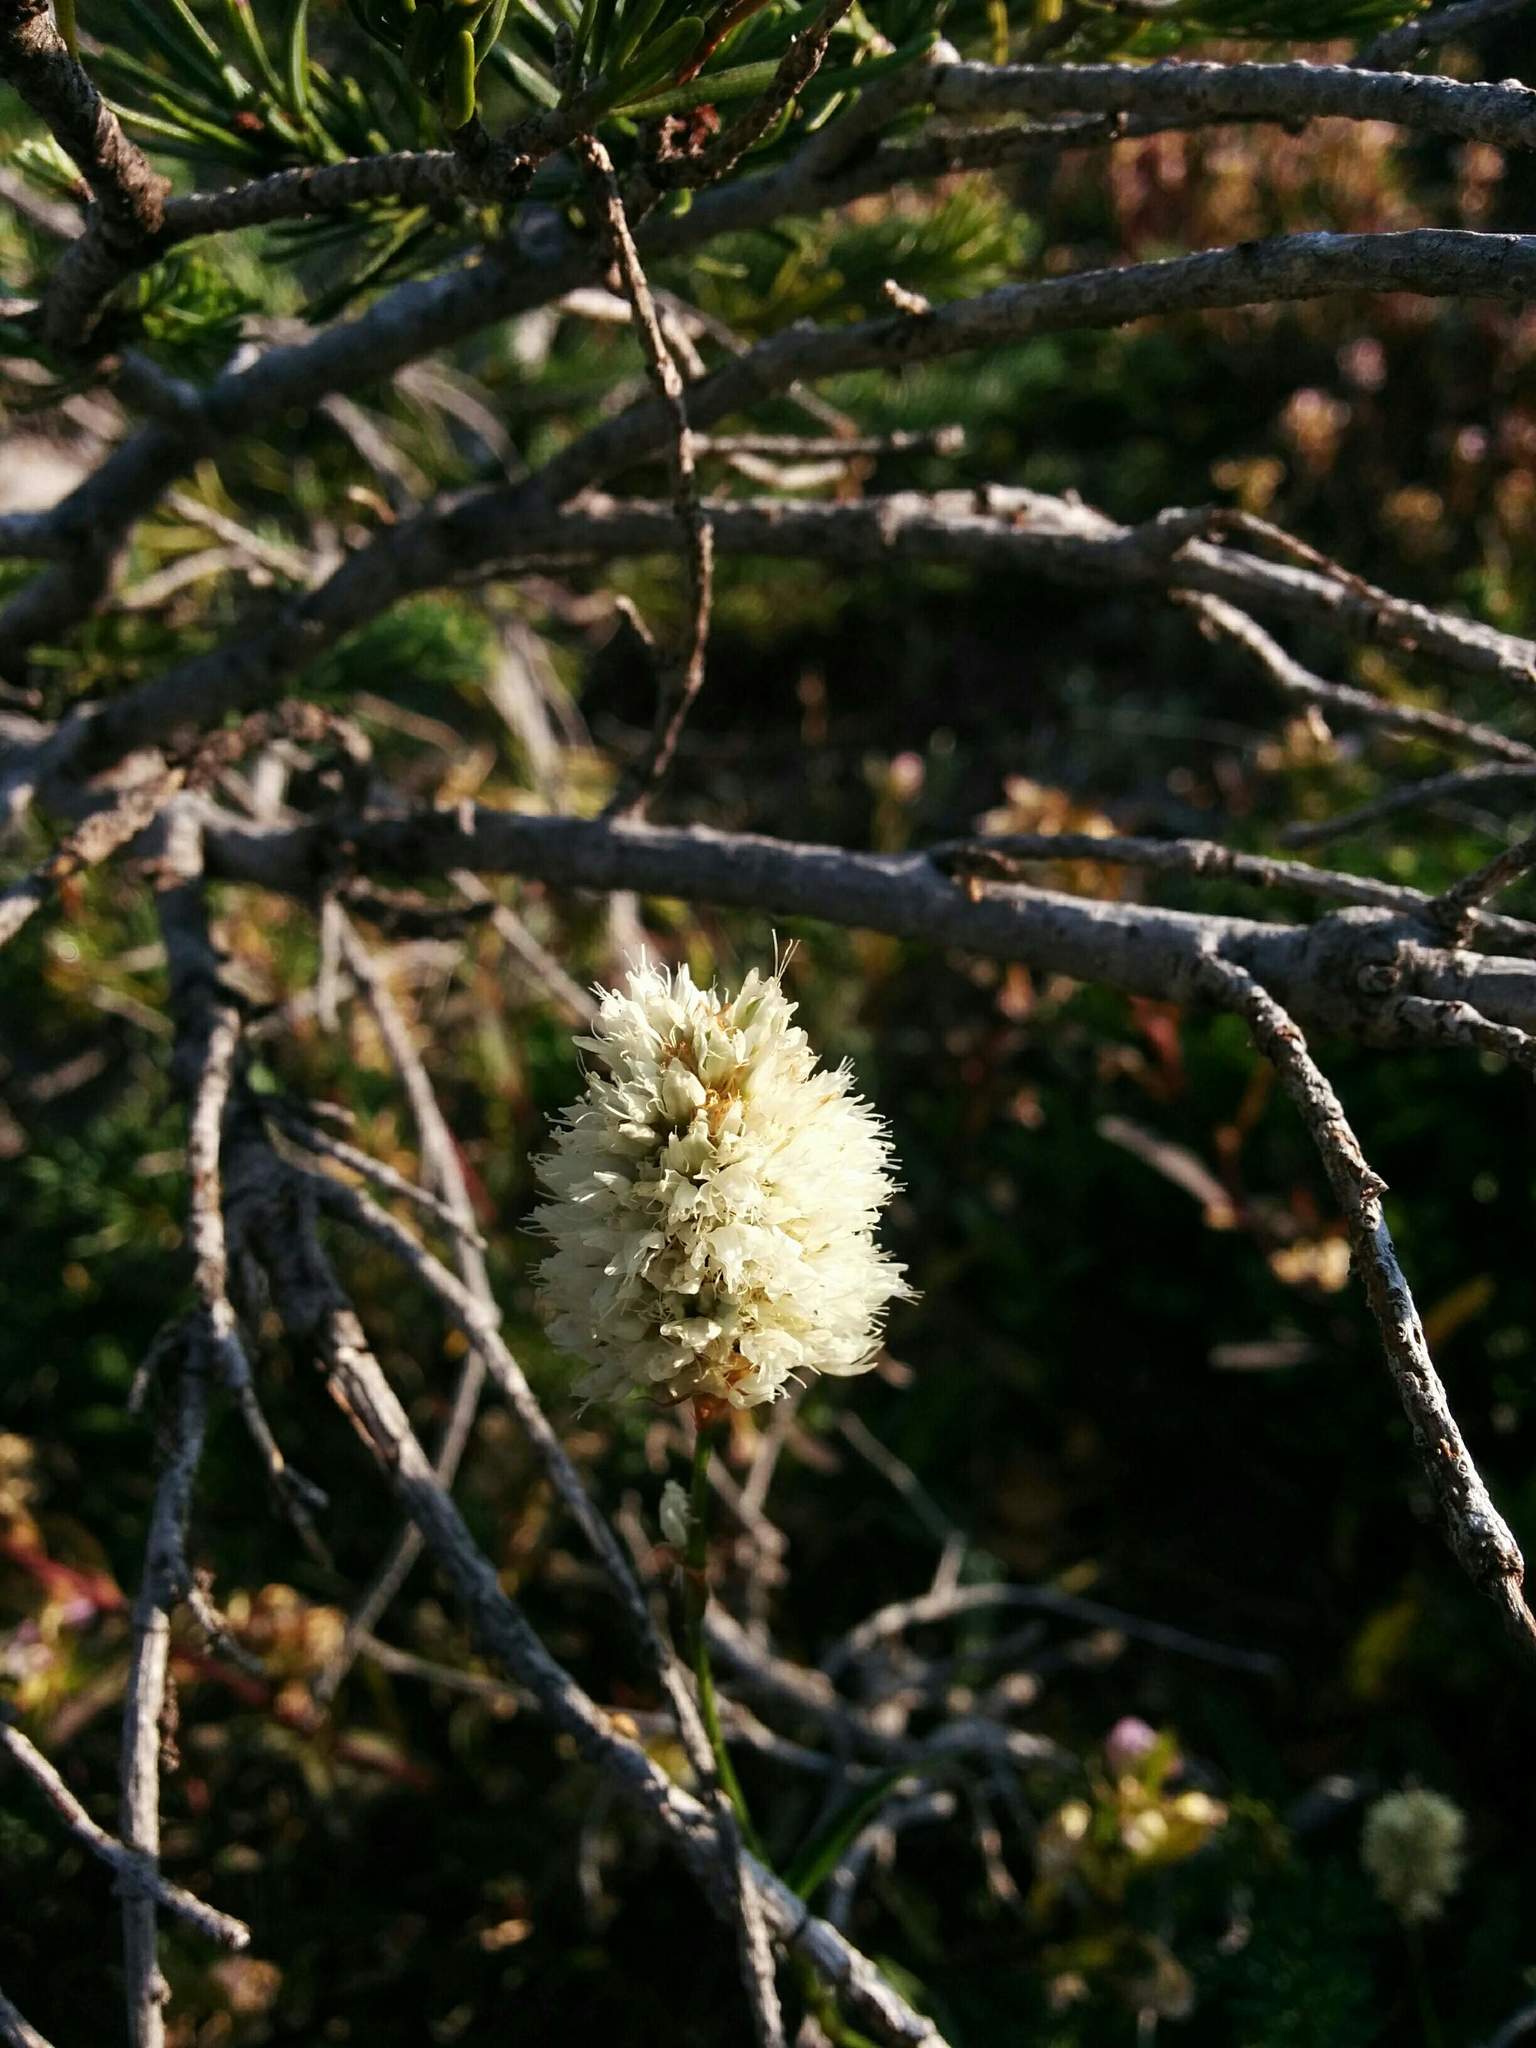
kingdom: Plantae
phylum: Tracheophyta
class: Magnoliopsida
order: Caryophyllales
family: Polygonaceae
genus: Bistorta
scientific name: Bistorta bistortoides
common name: American bistort
